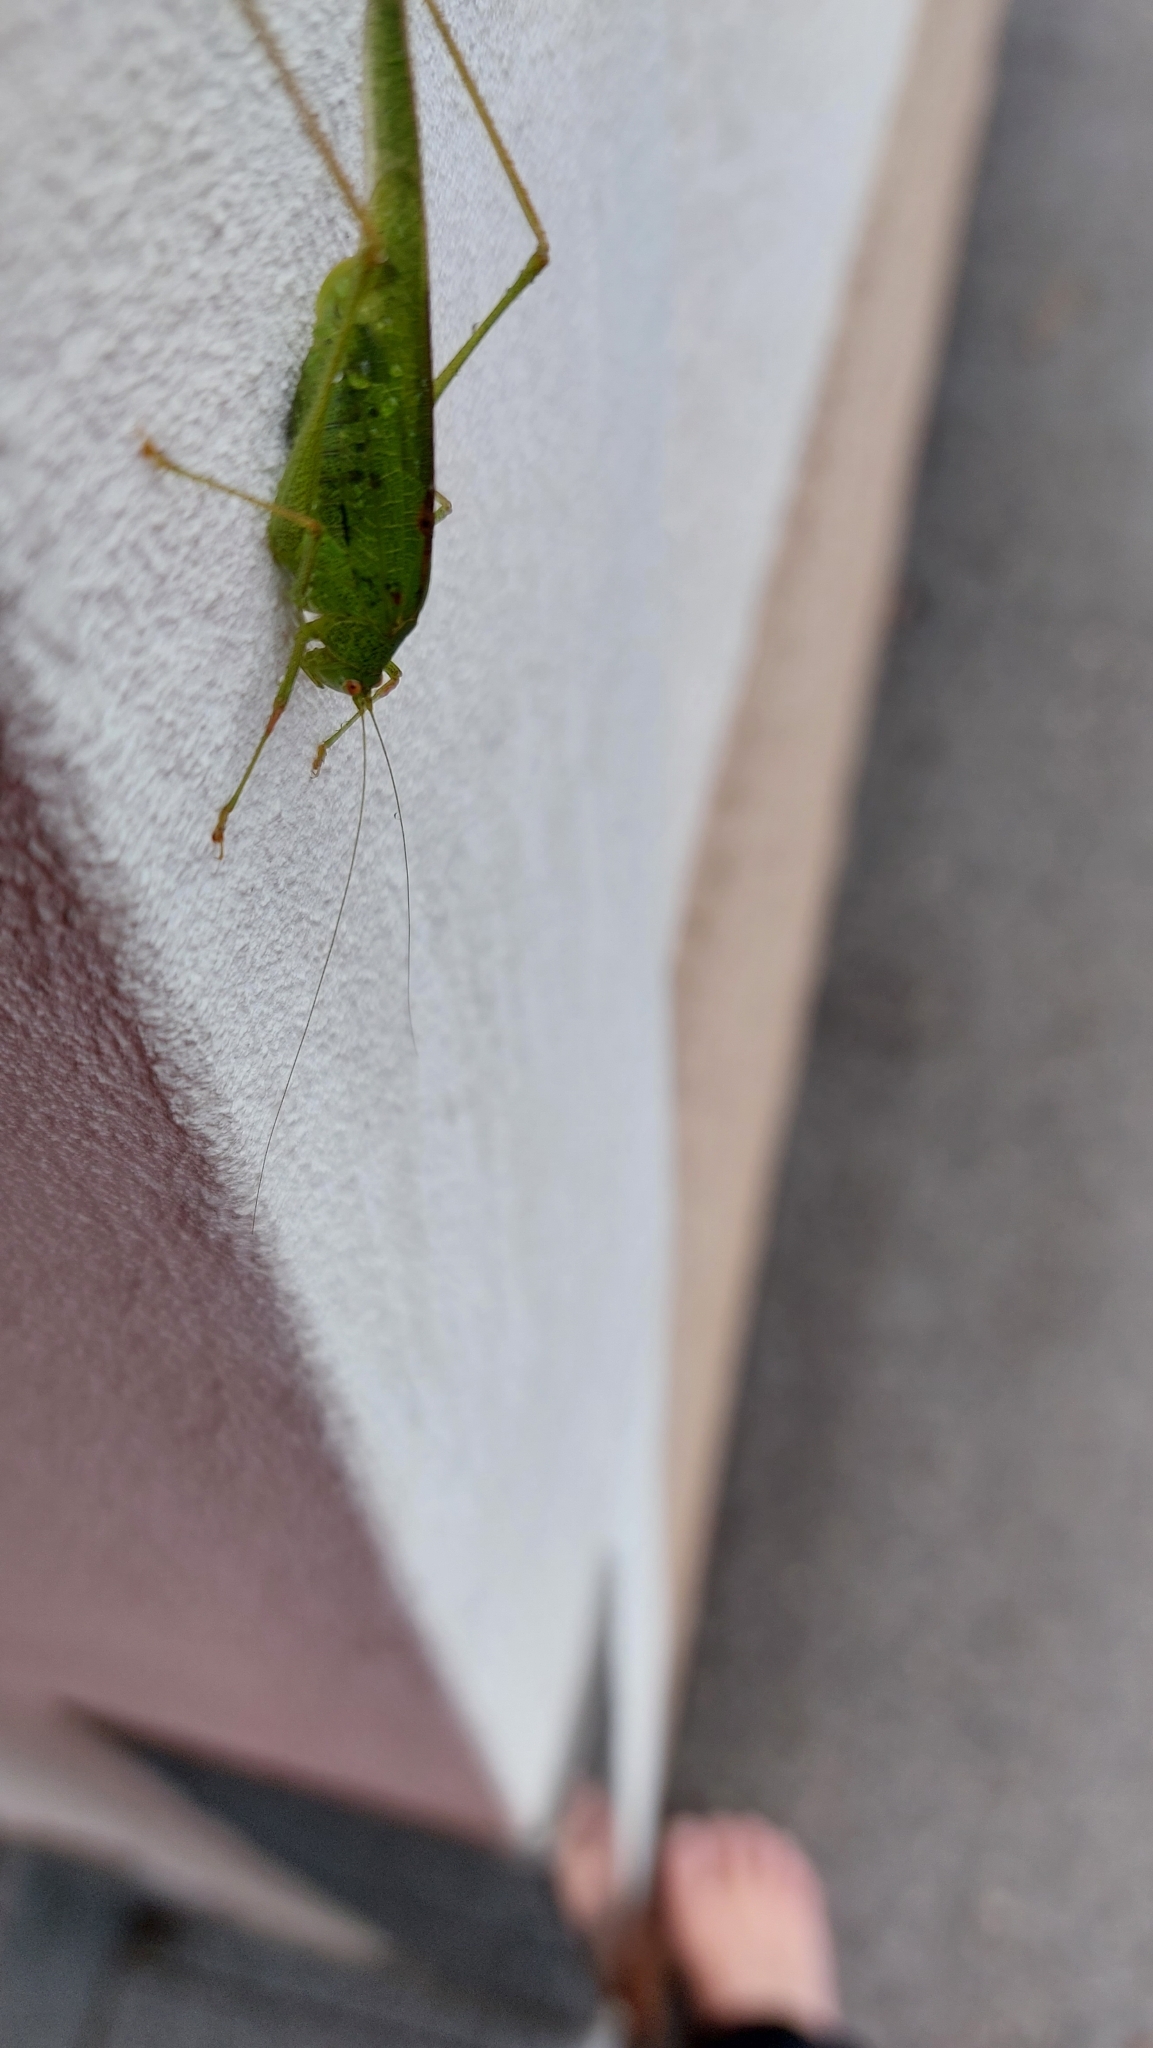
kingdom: Animalia
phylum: Arthropoda
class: Insecta
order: Orthoptera
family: Tettigoniidae
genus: Phaneroptera
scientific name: Phaneroptera nana
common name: Southern sickle bush-cricket
